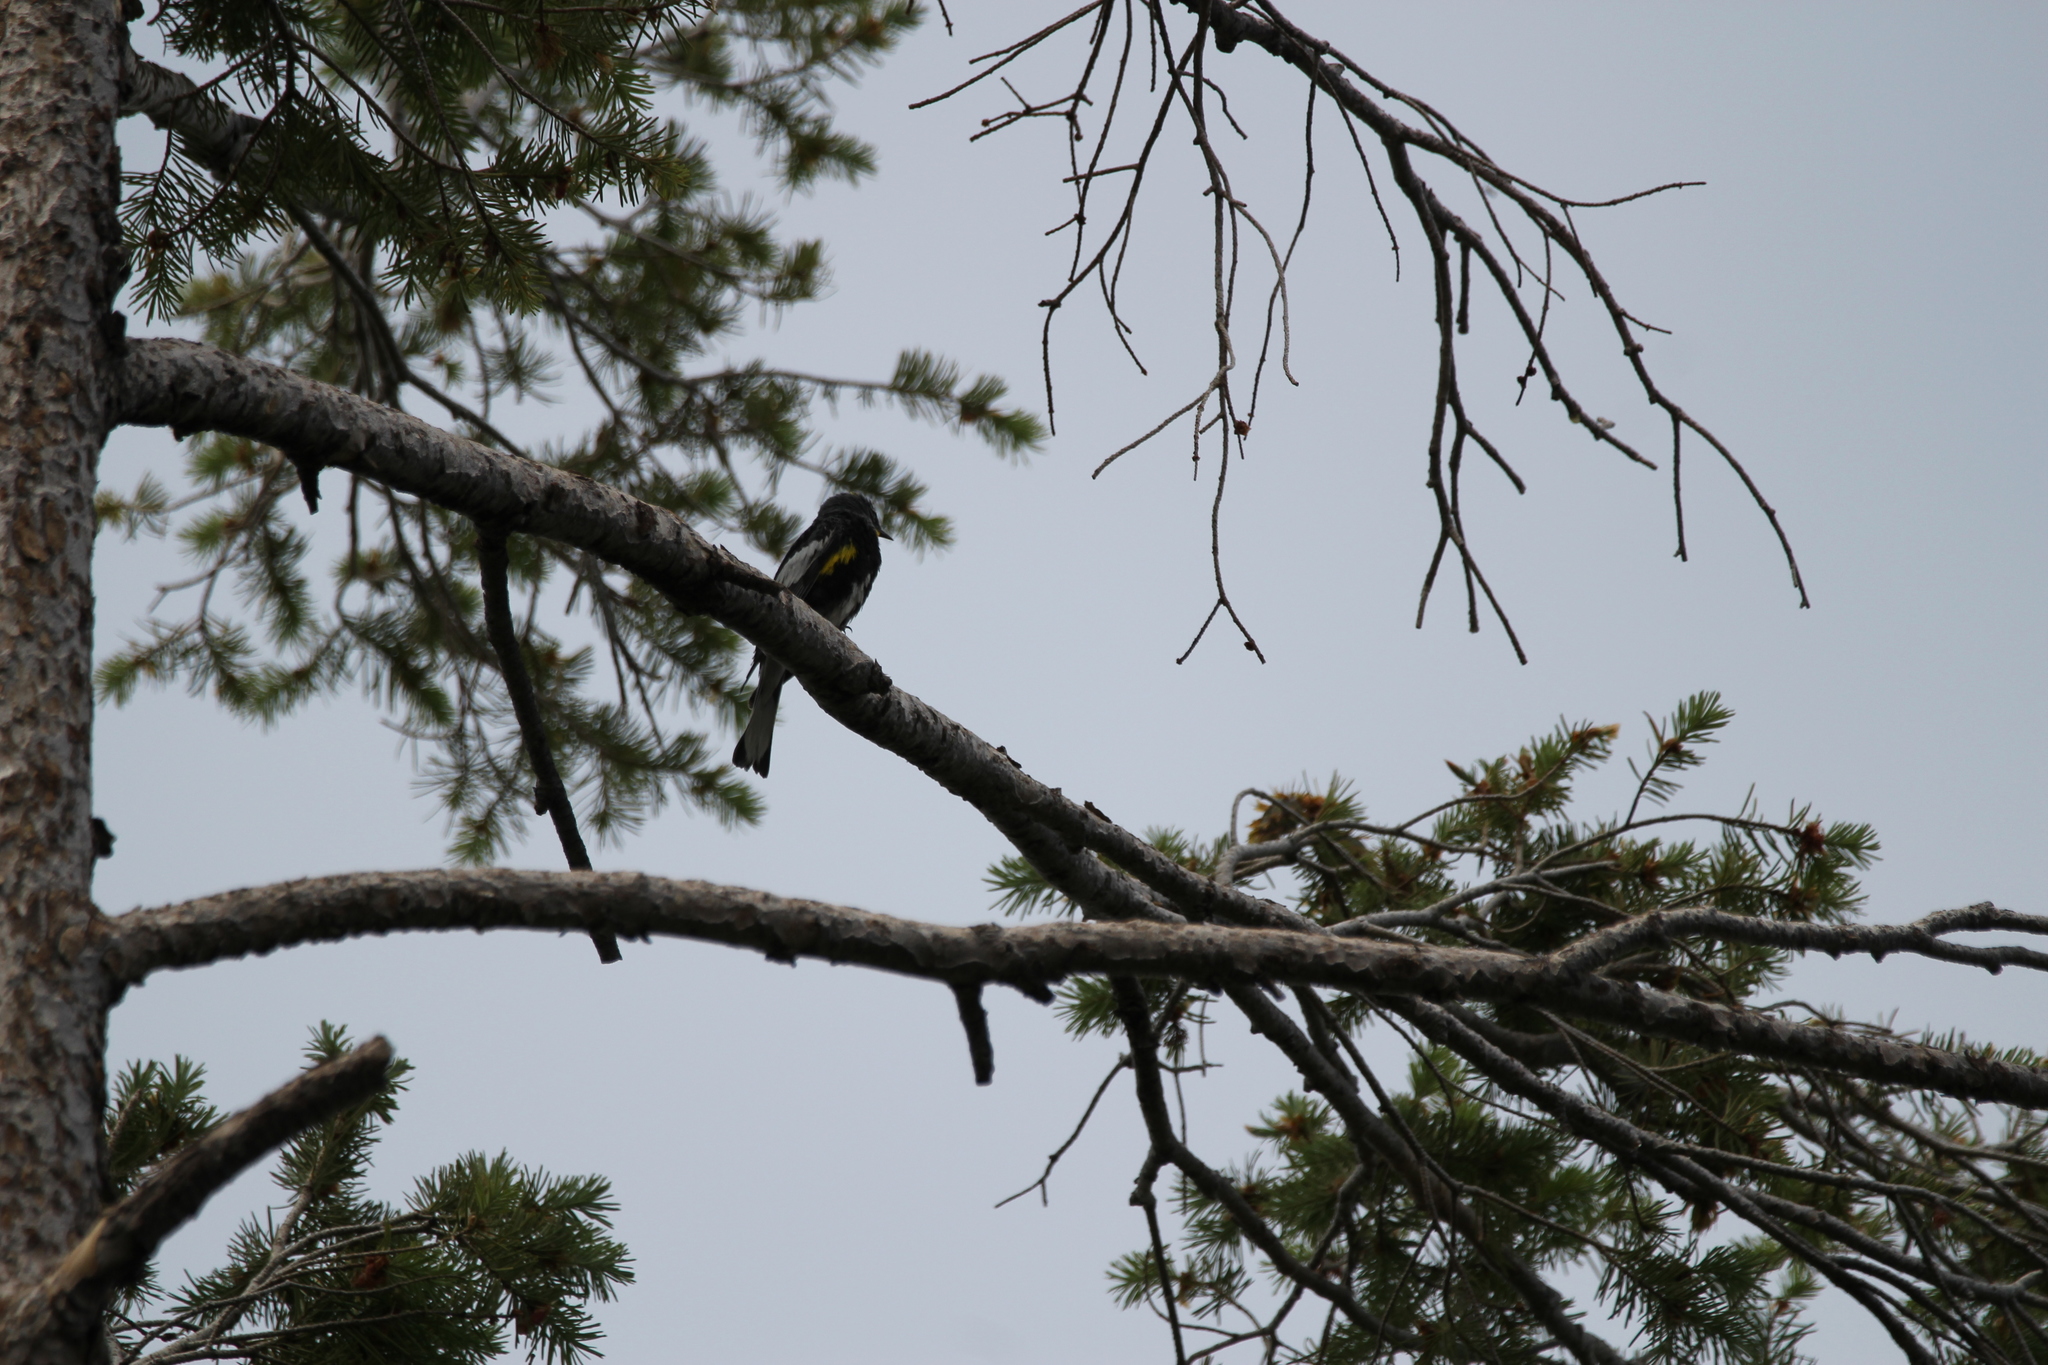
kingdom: Animalia
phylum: Chordata
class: Aves
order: Passeriformes
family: Parulidae
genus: Setophaga
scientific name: Setophaga coronata
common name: Myrtle warbler
